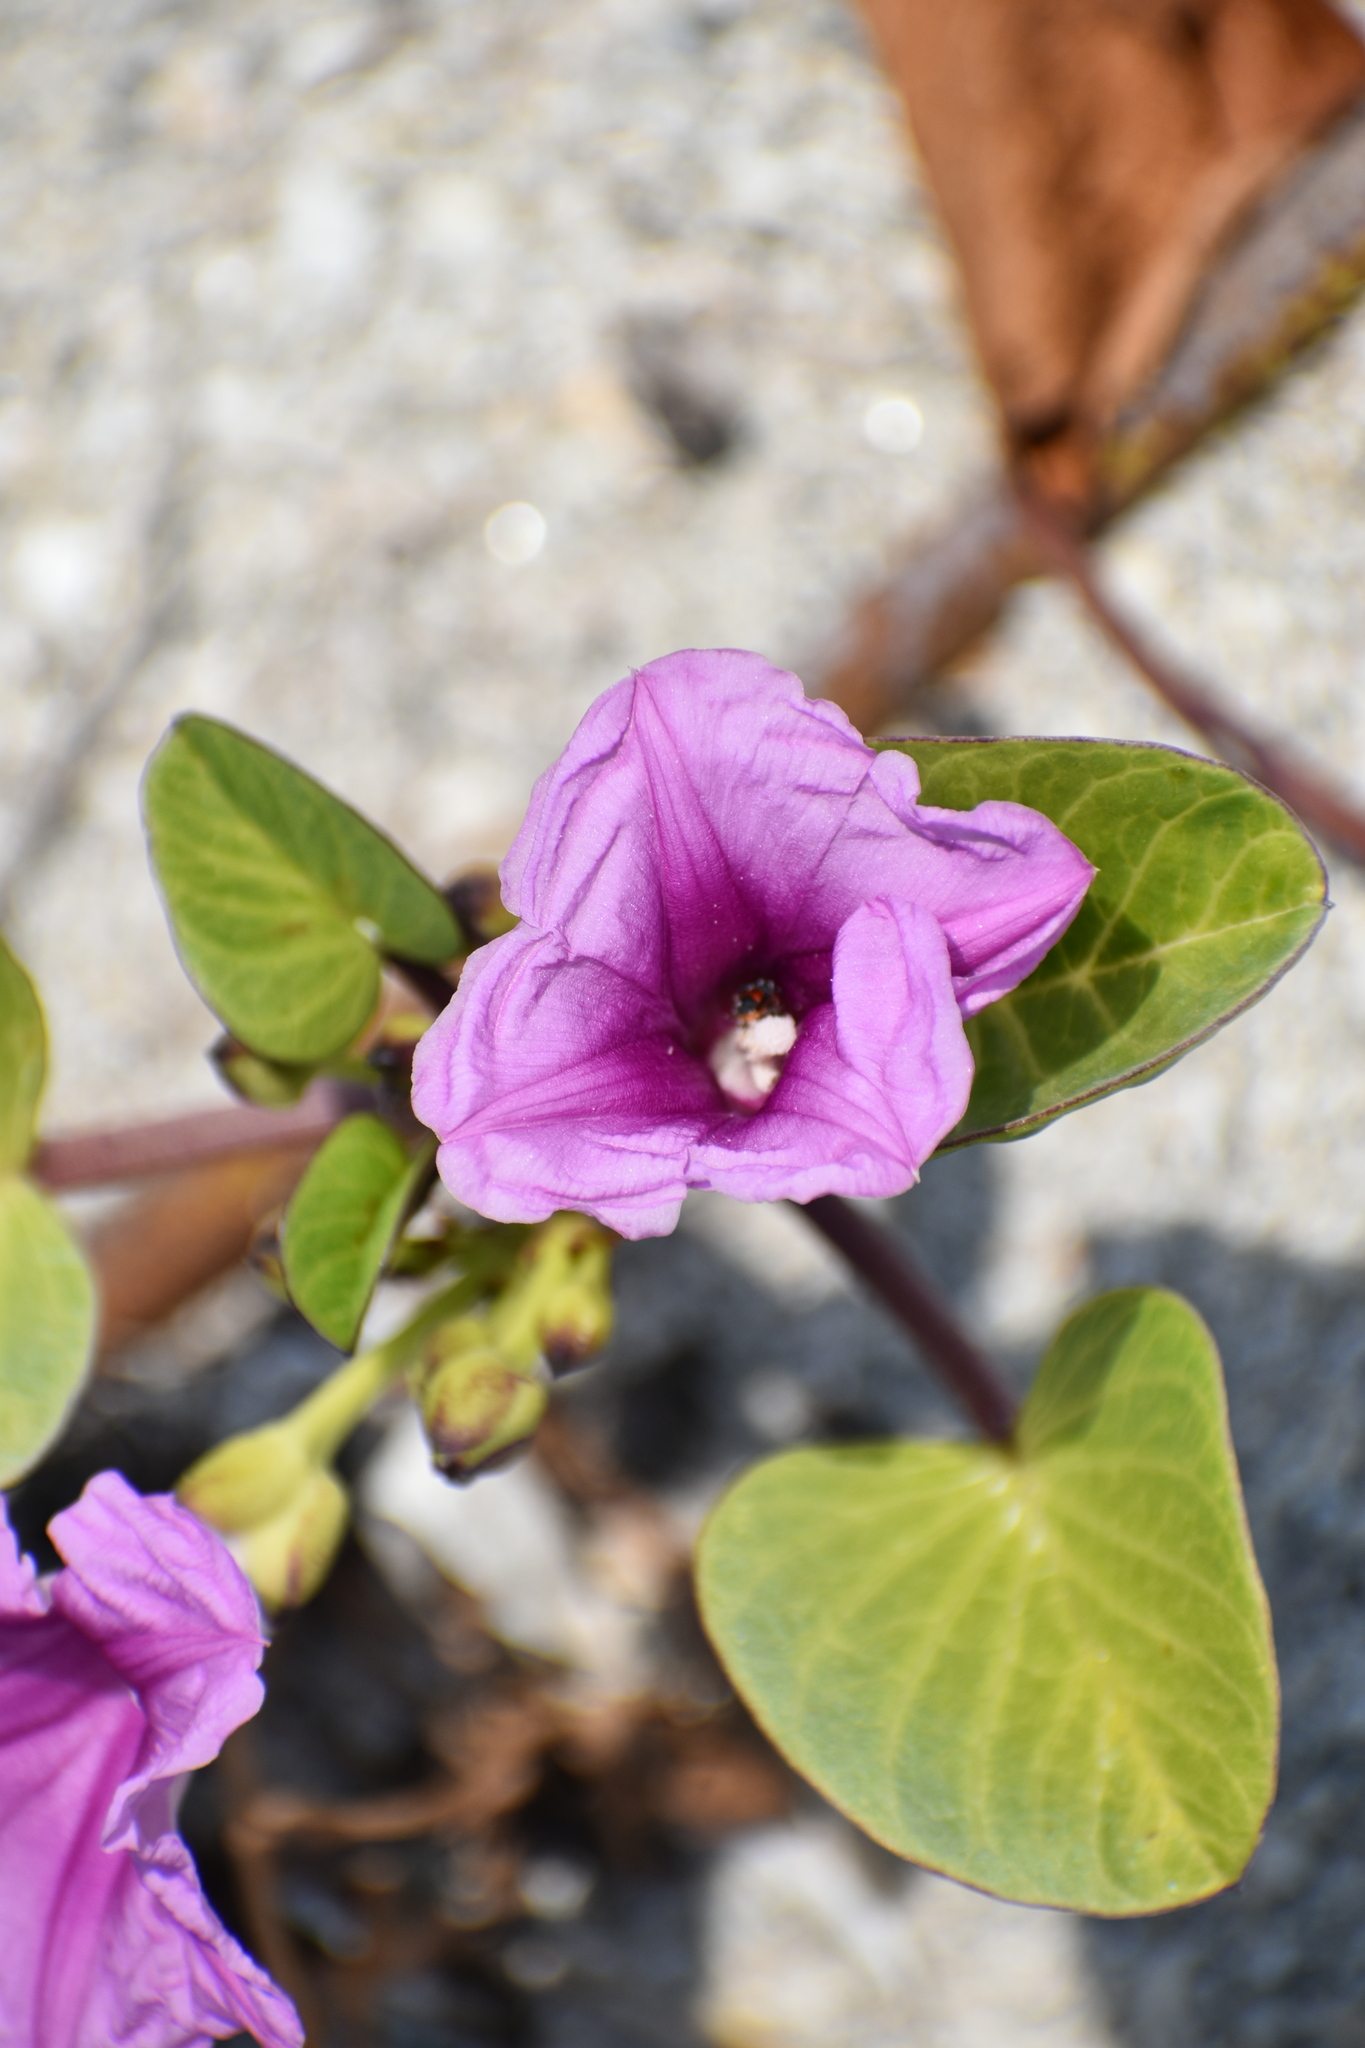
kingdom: Plantae
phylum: Tracheophyta
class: Magnoliopsida
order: Solanales
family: Convolvulaceae
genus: Ipomoea
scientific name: Ipomoea pes-caprae
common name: Beach morning glory
